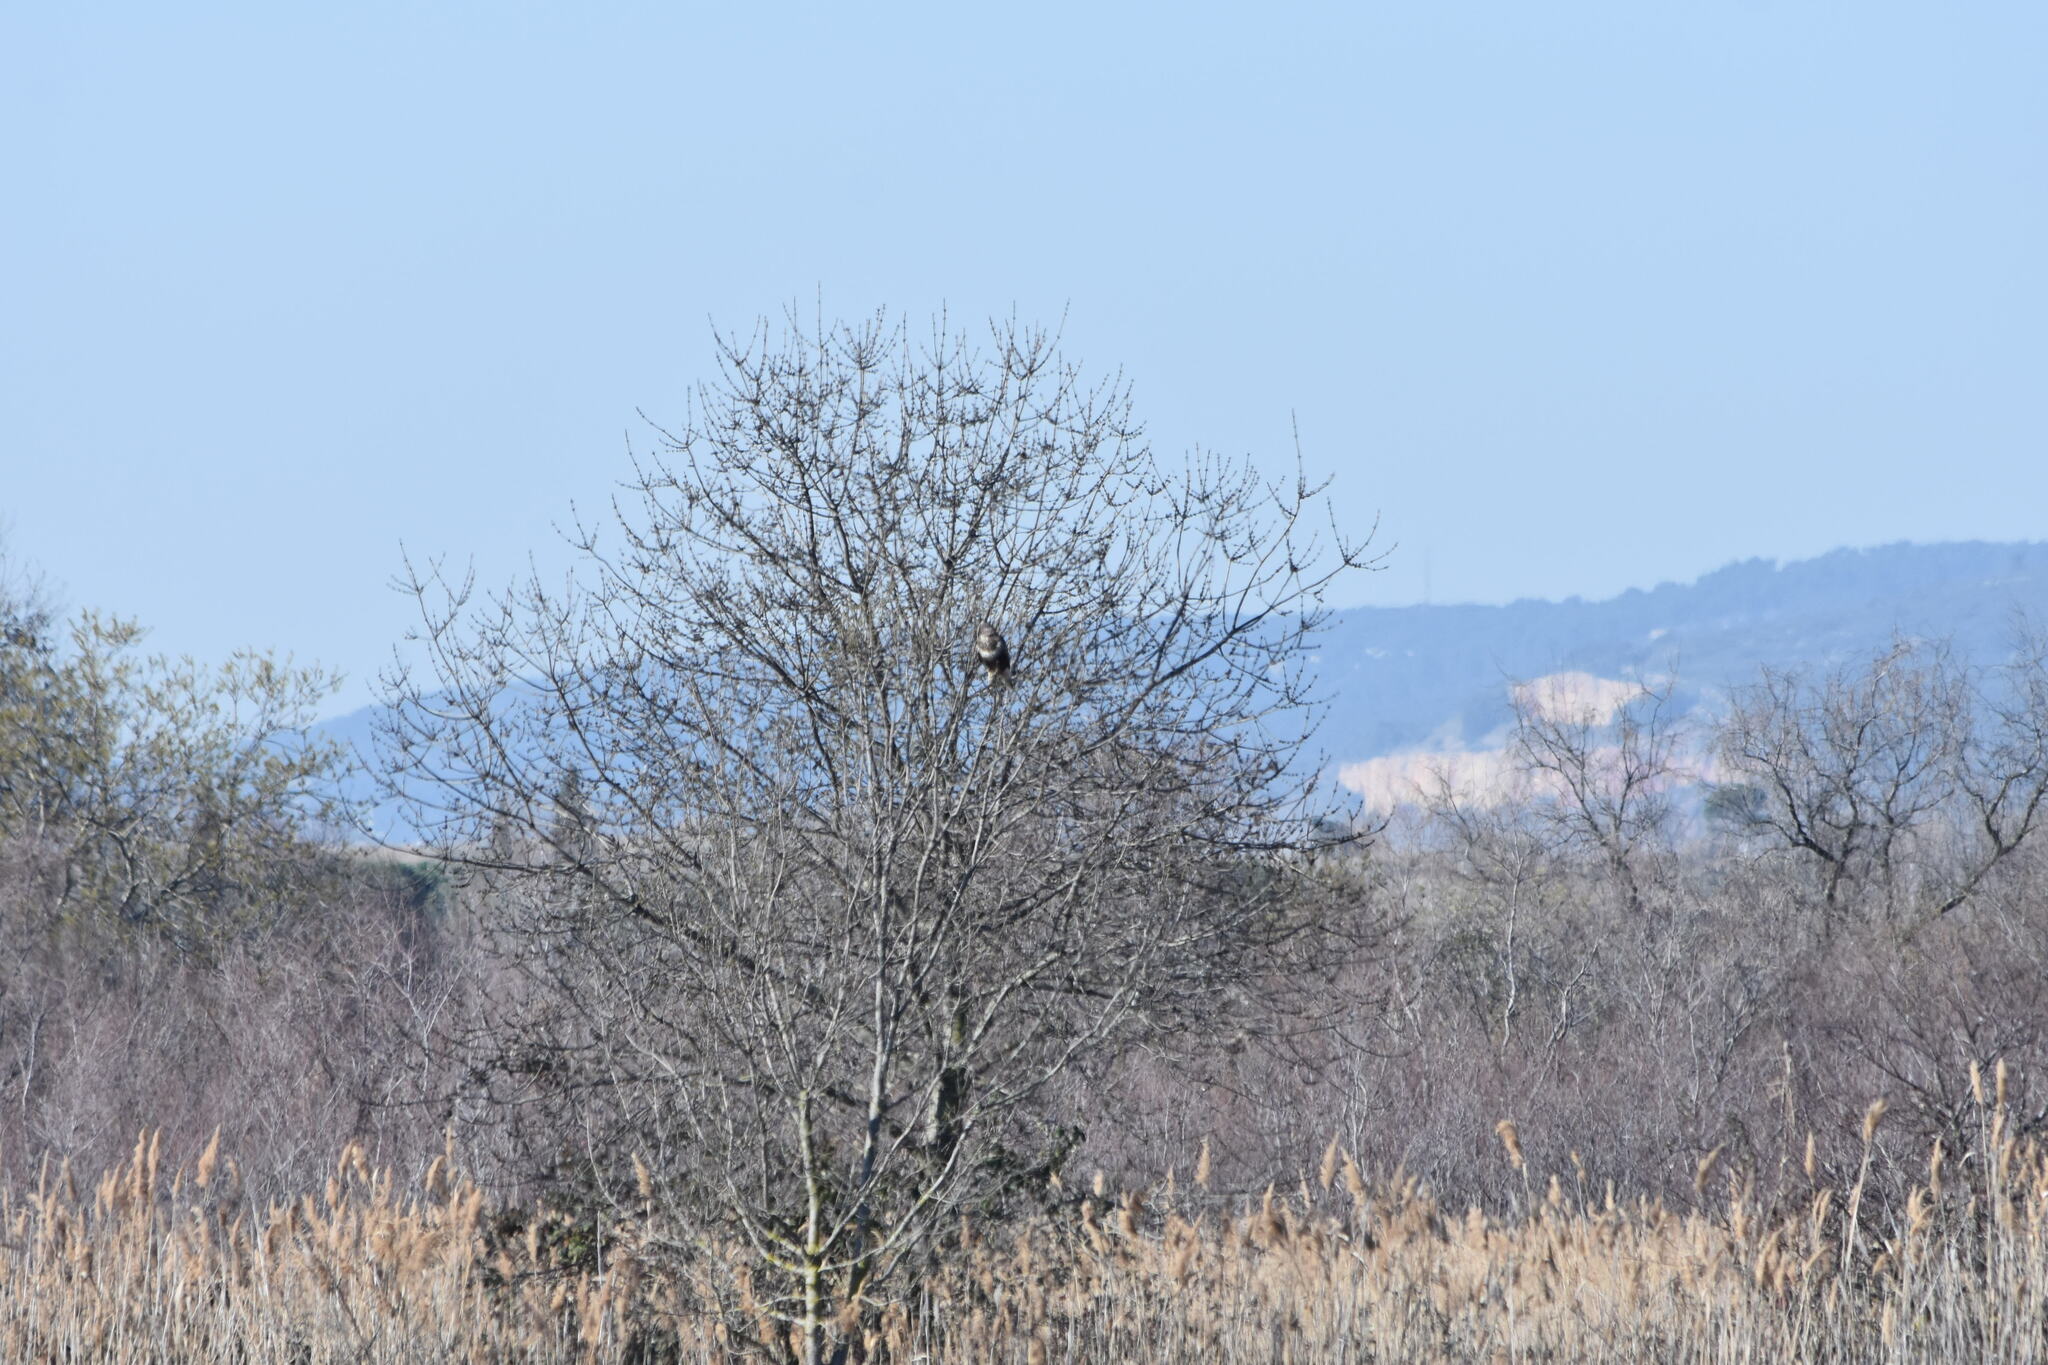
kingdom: Animalia
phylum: Chordata
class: Aves
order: Accipitriformes
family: Accipitridae
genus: Buteo
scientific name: Buteo buteo
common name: Common buzzard
